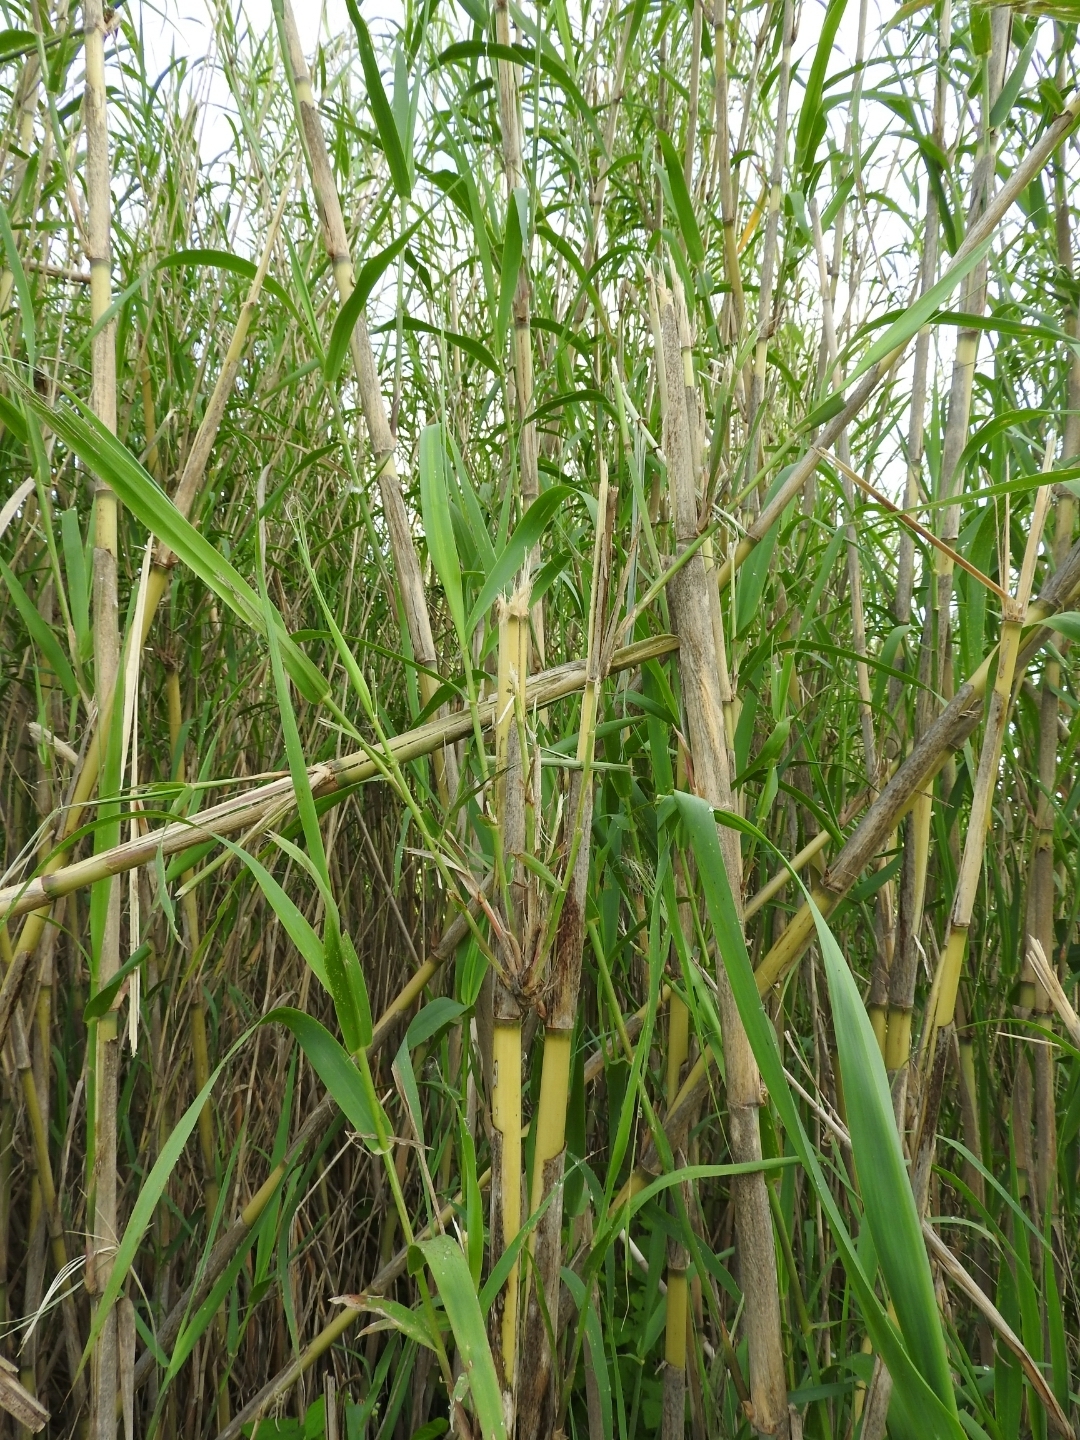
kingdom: Plantae
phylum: Tracheophyta
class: Liliopsida
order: Poales
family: Poaceae
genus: Arundo
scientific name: Arundo donax
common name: Giant reed
